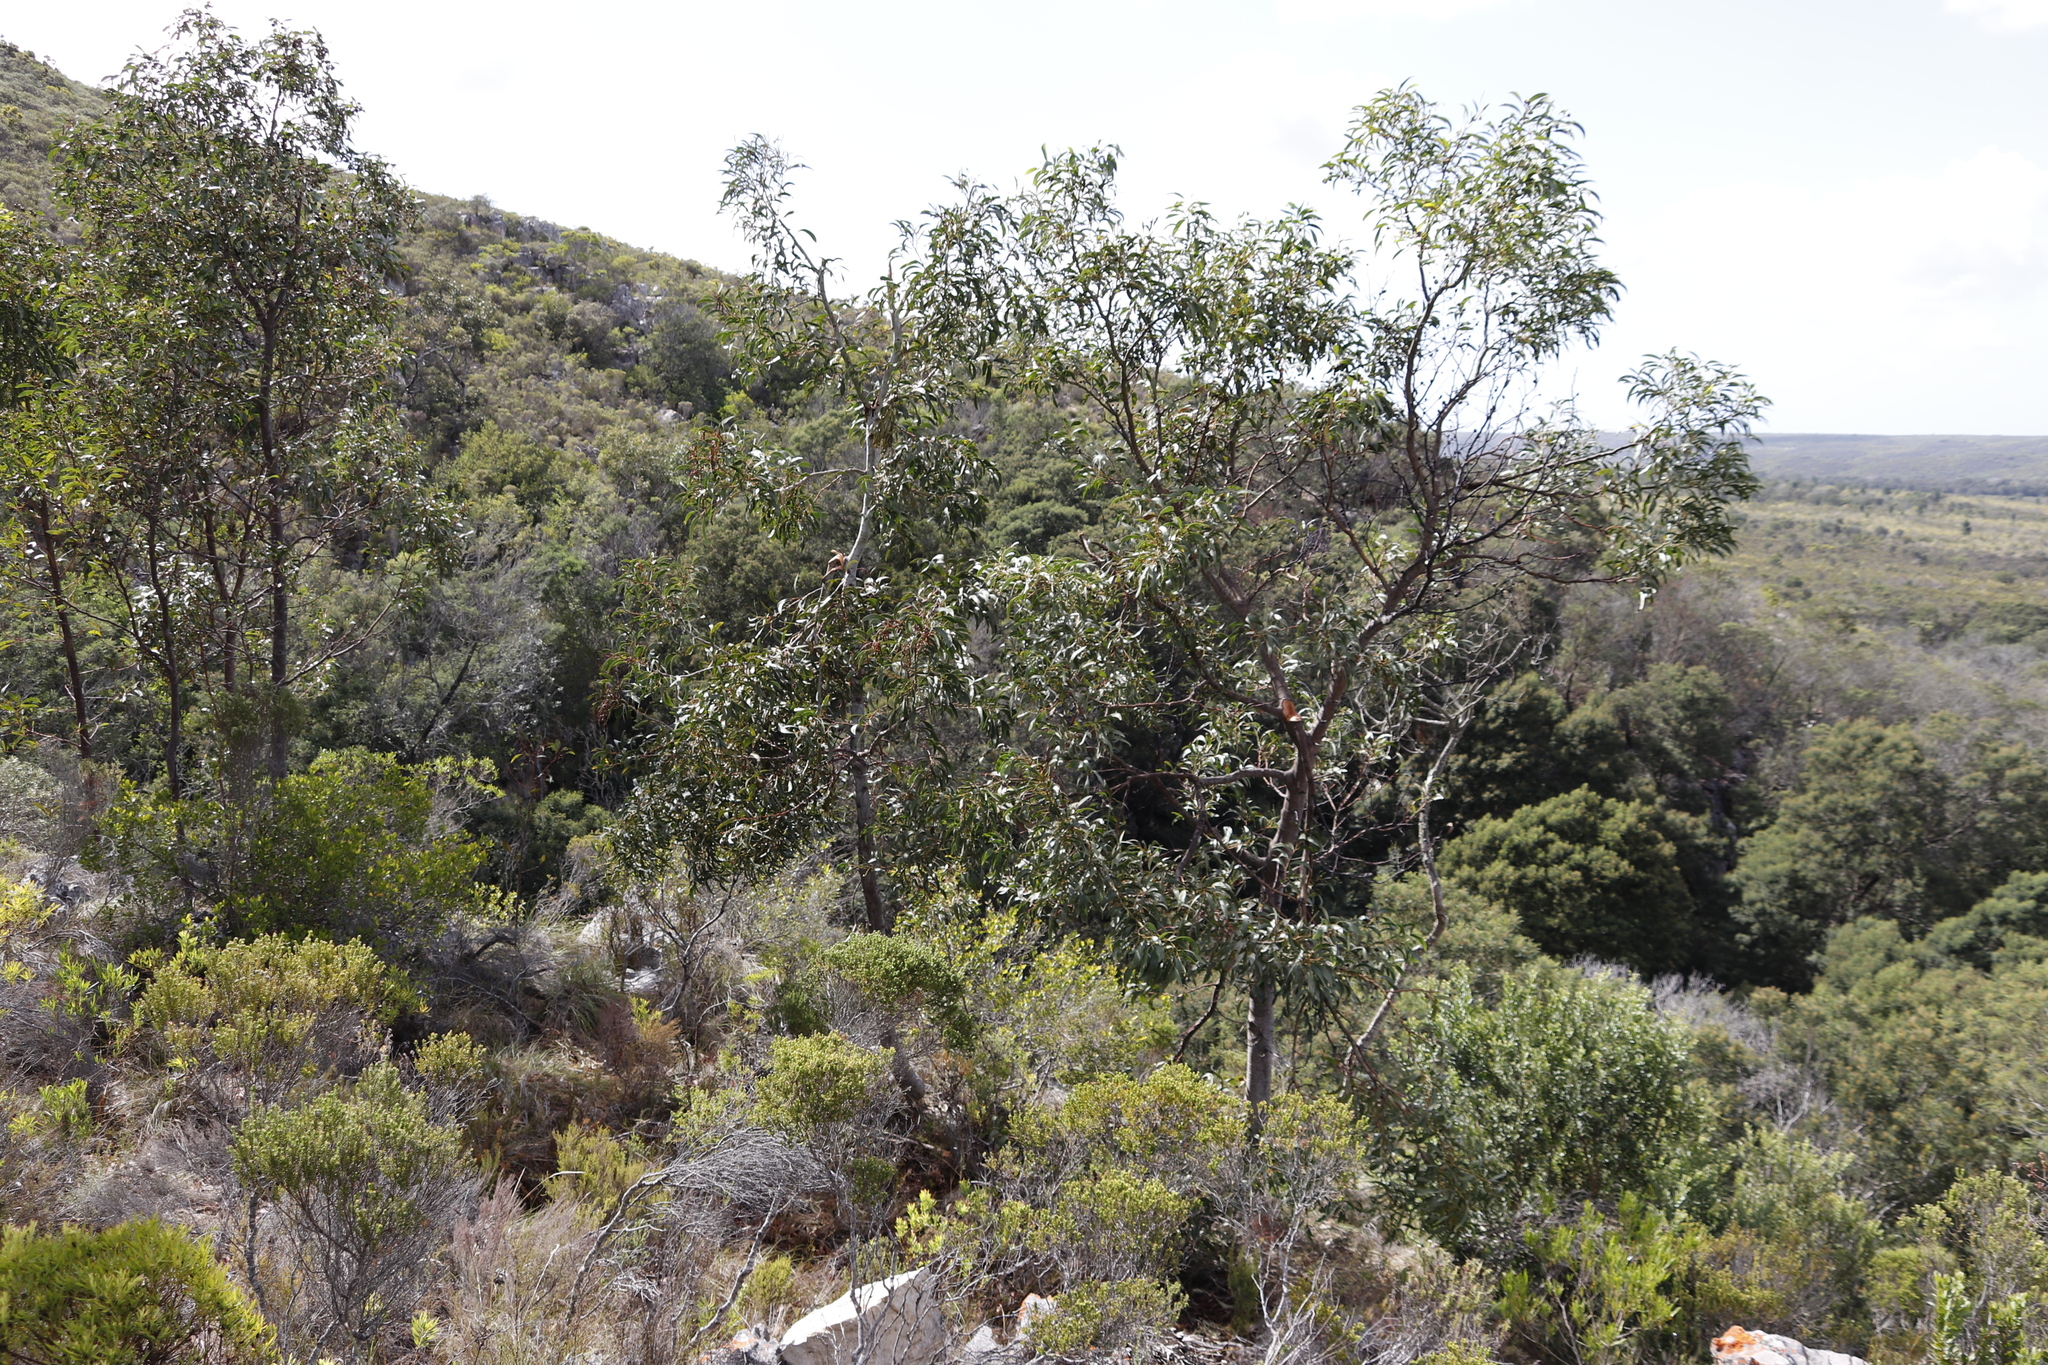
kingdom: Plantae
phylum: Tracheophyta
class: Magnoliopsida
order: Fabales
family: Fabaceae
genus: Acacia
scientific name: Acacia pycnantha
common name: Golden wattle
